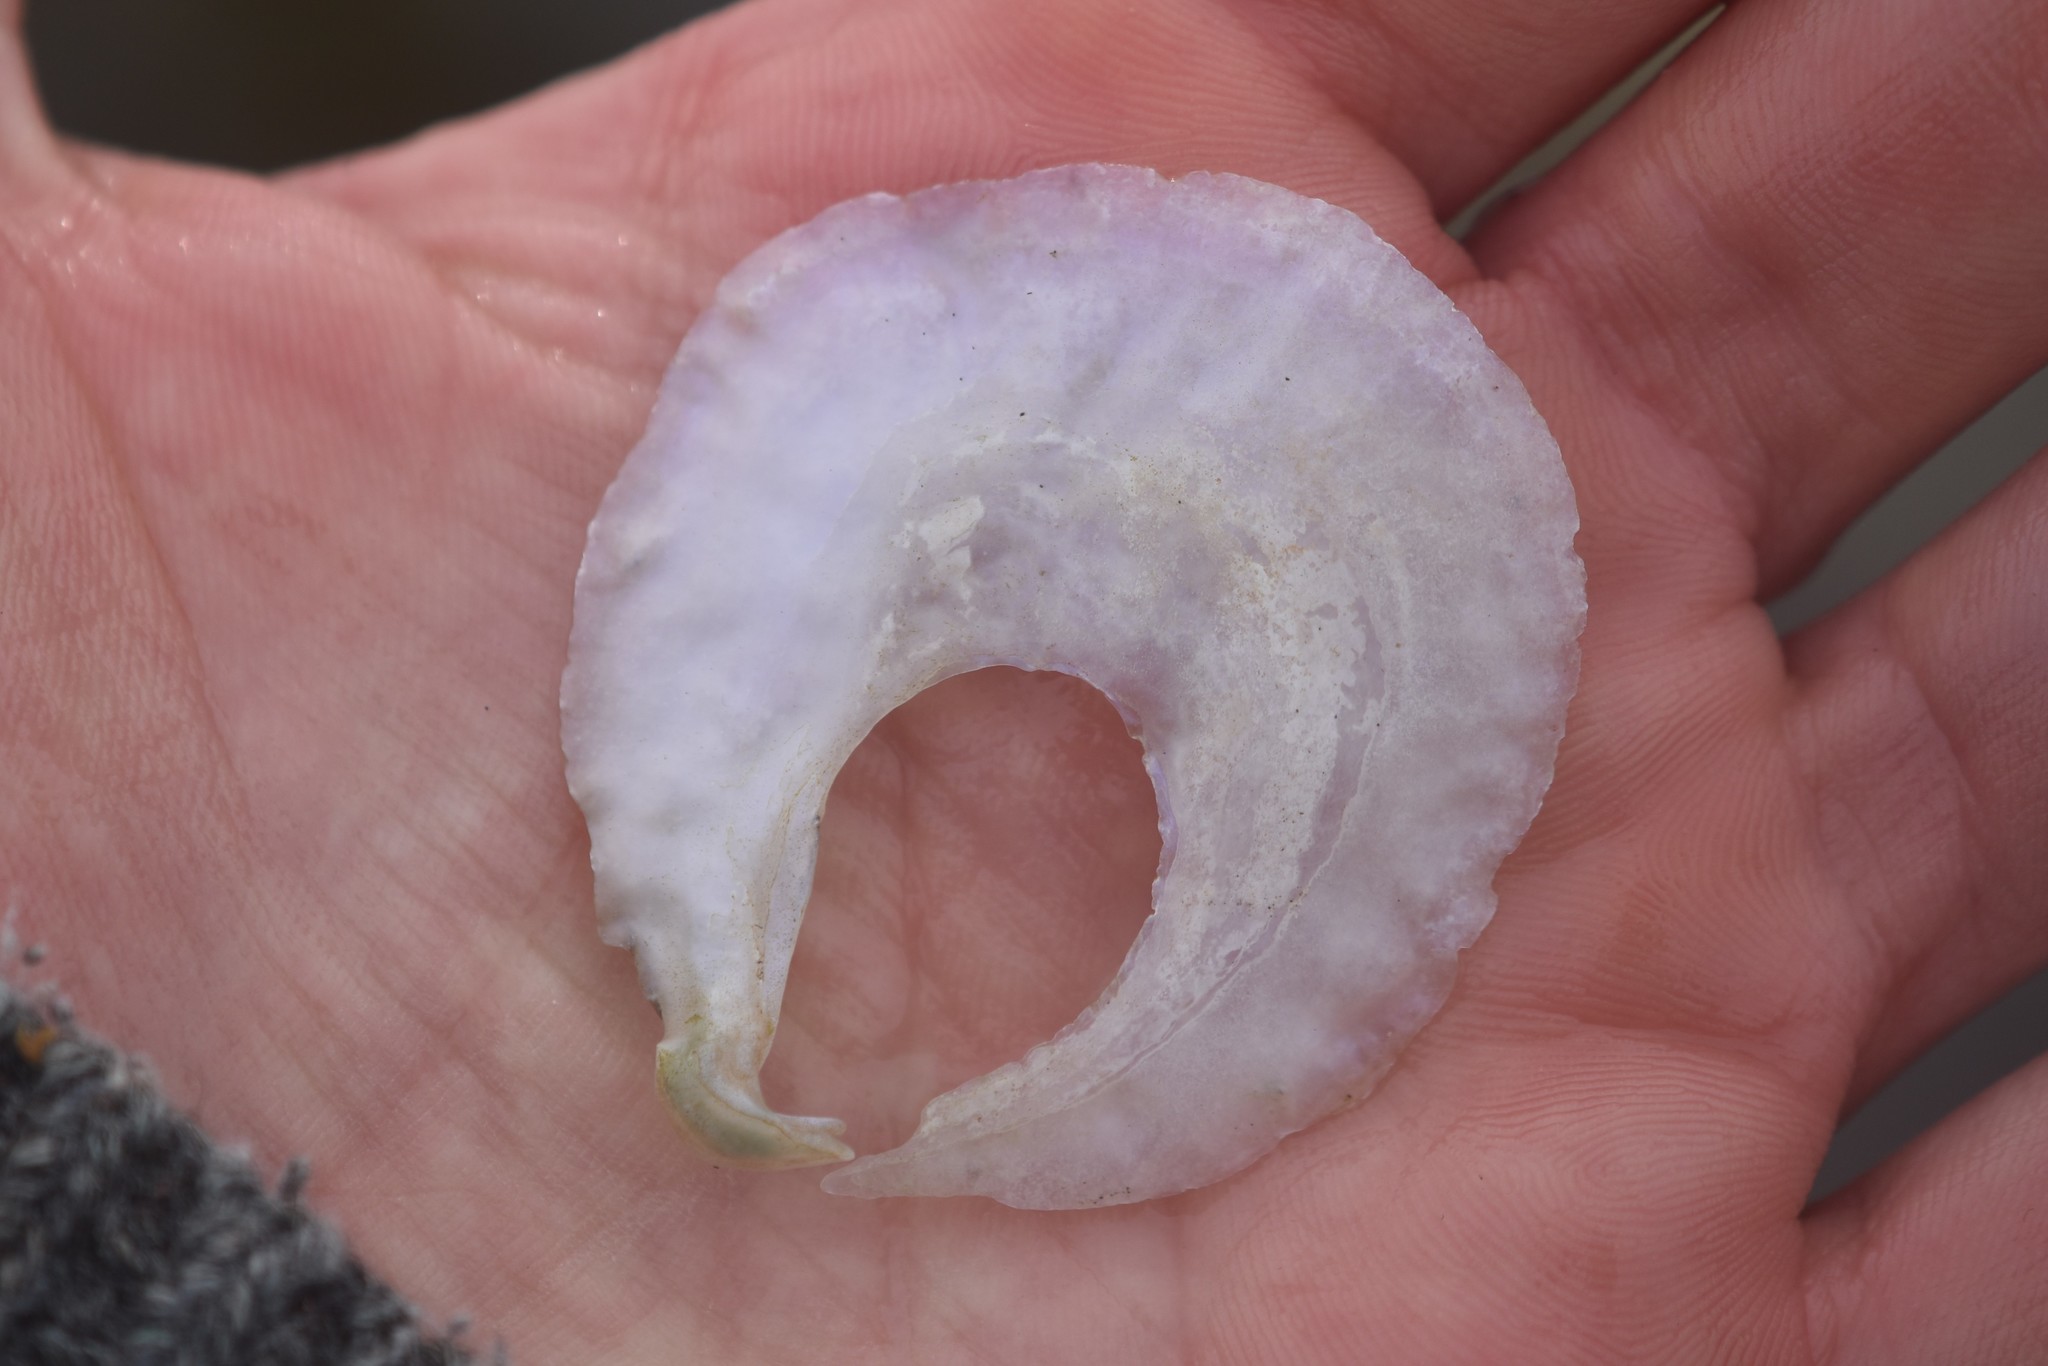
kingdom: Animalia
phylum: Mollusca
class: Bivalvia
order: Pectinida
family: Anomiidae
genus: Pododesmus
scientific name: Pododesmus macrochisma
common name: Alaska jingle
